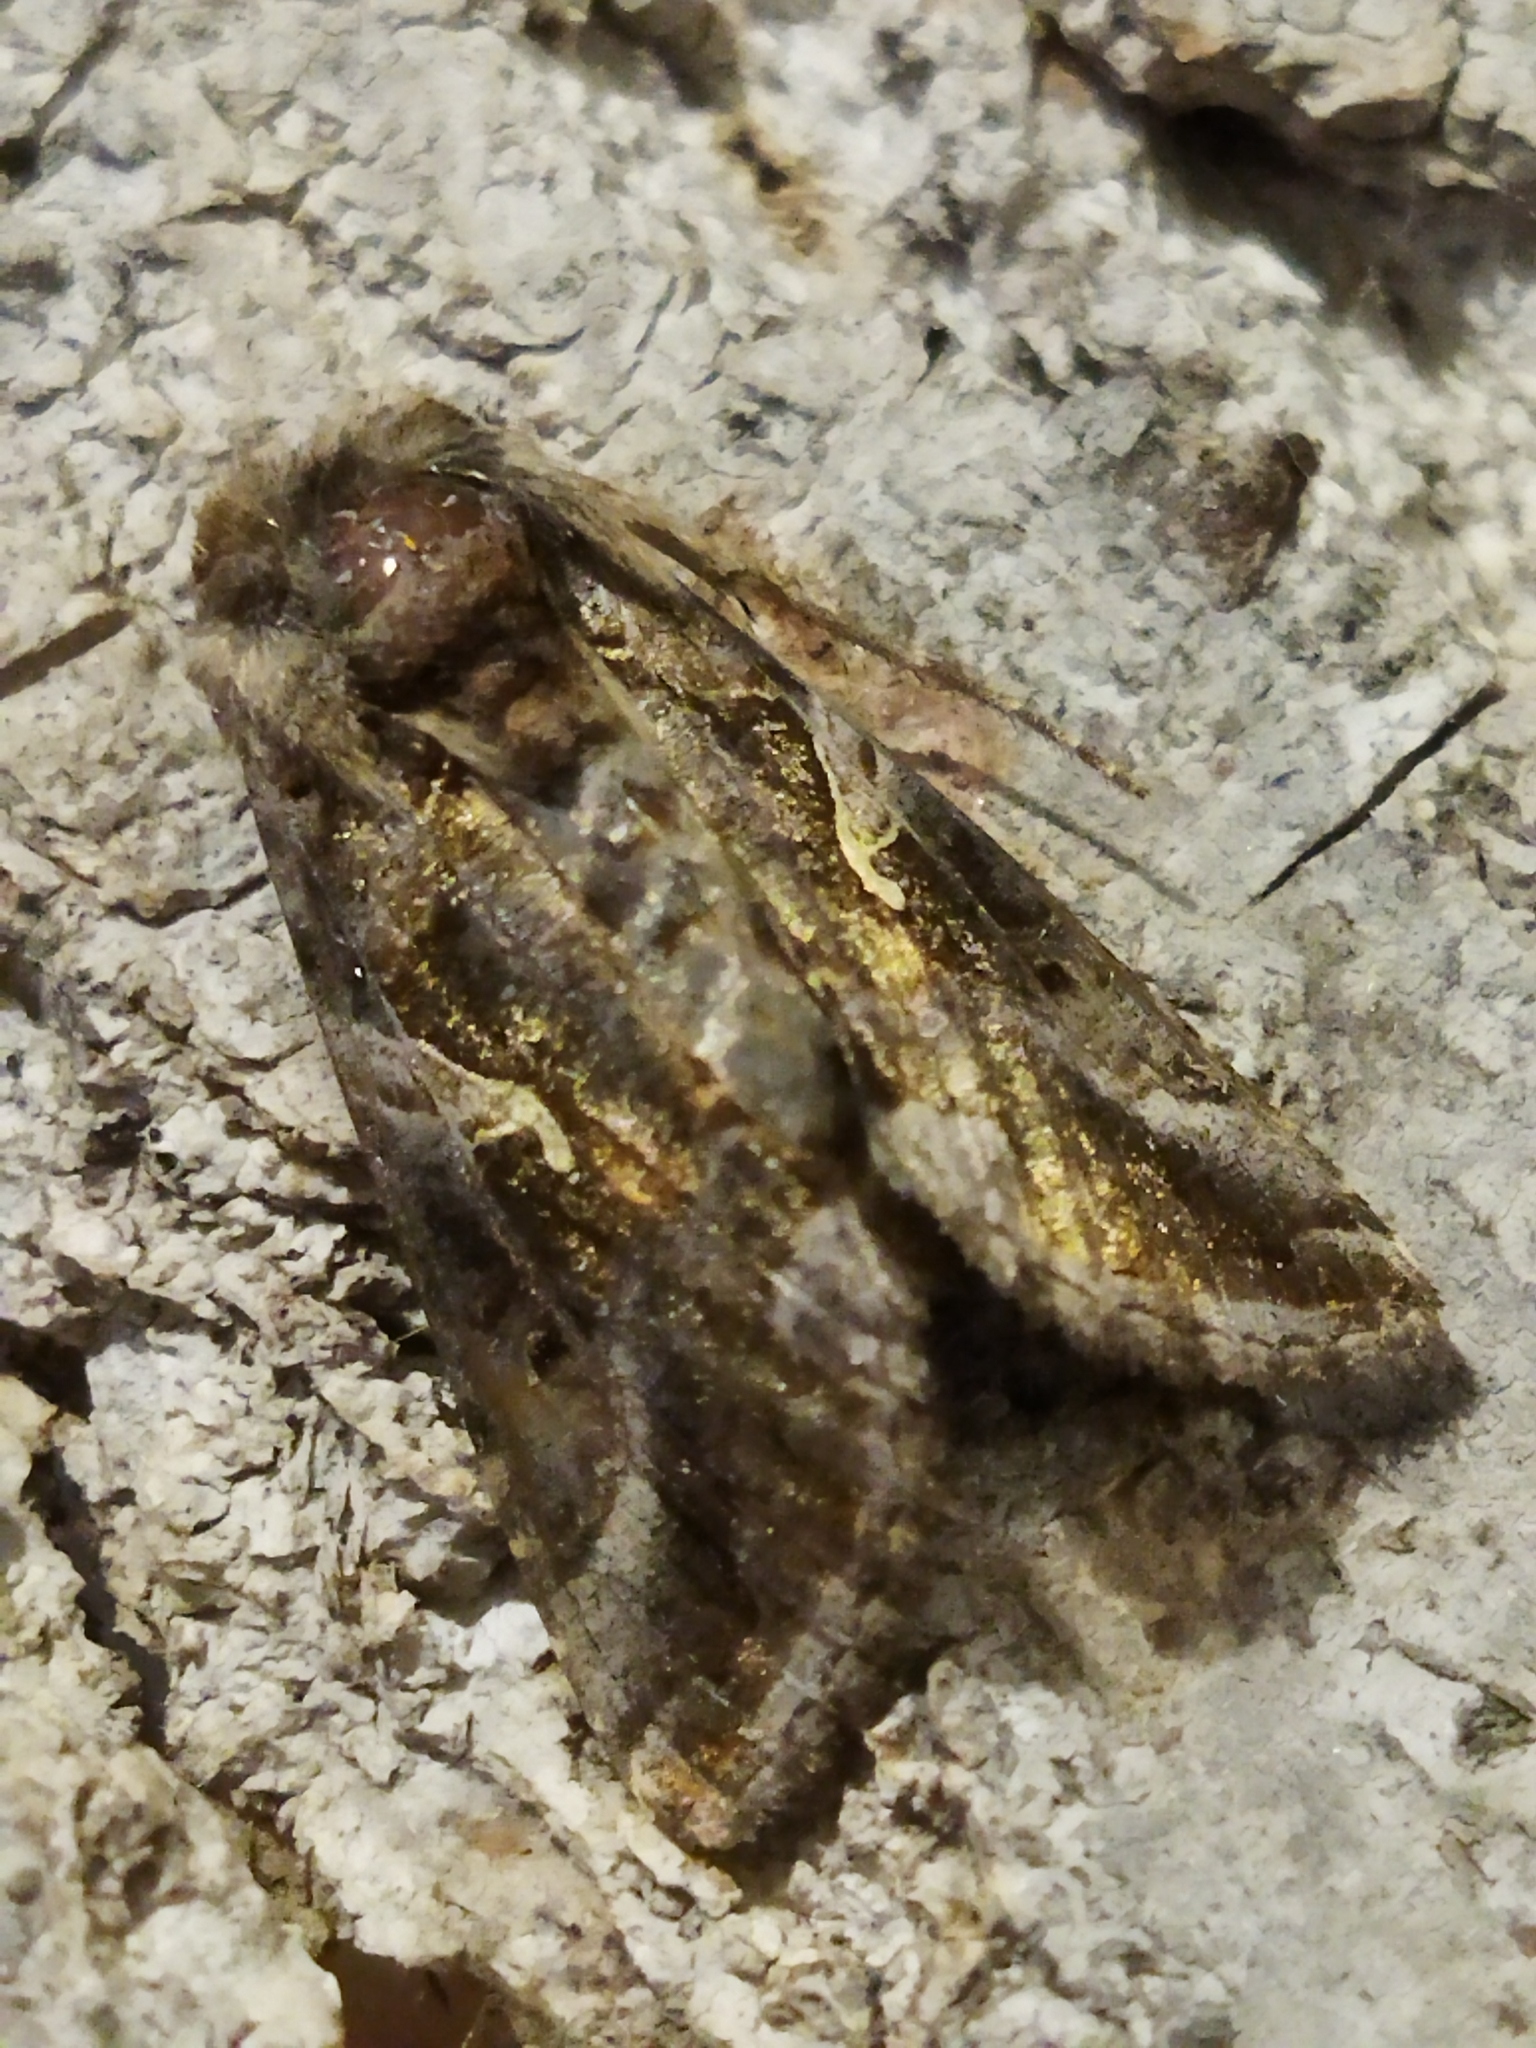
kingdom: Animalia
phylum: Arthropoda
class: Insecta
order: Lepidoptera
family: Noctuidae
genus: Autographa
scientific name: Autographa gamma
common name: Silver y
